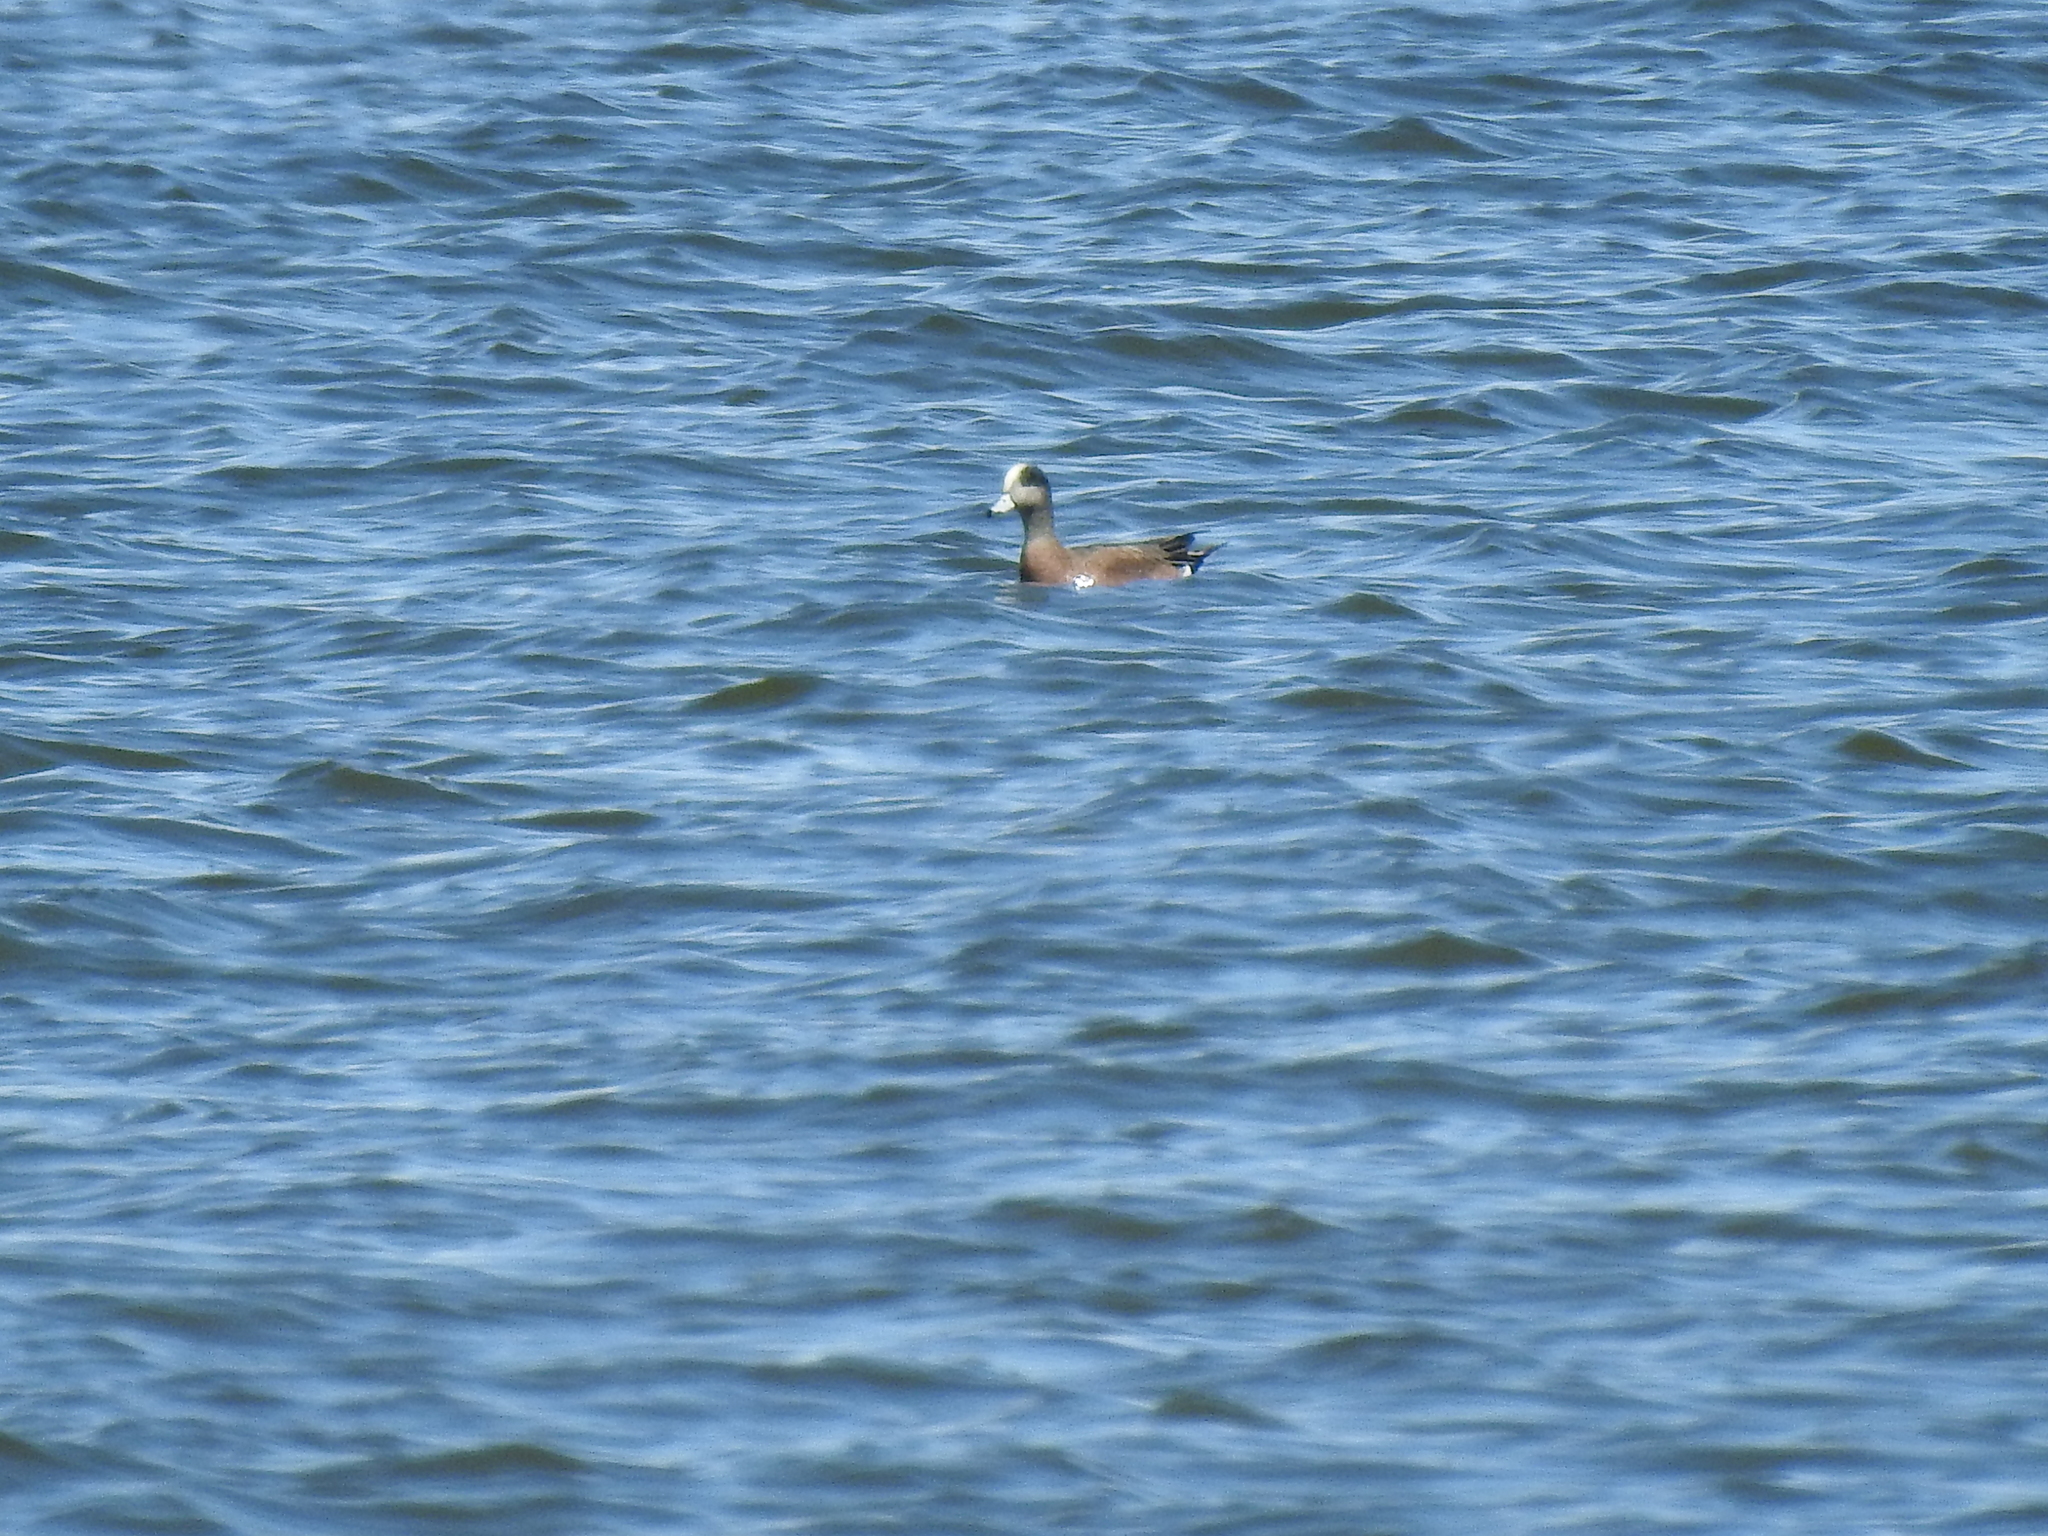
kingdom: Animalia
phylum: Chordata
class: Aves
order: Anseriformes
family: Anatidae
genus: Mareca
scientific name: Mareca americana
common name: American wigeon
